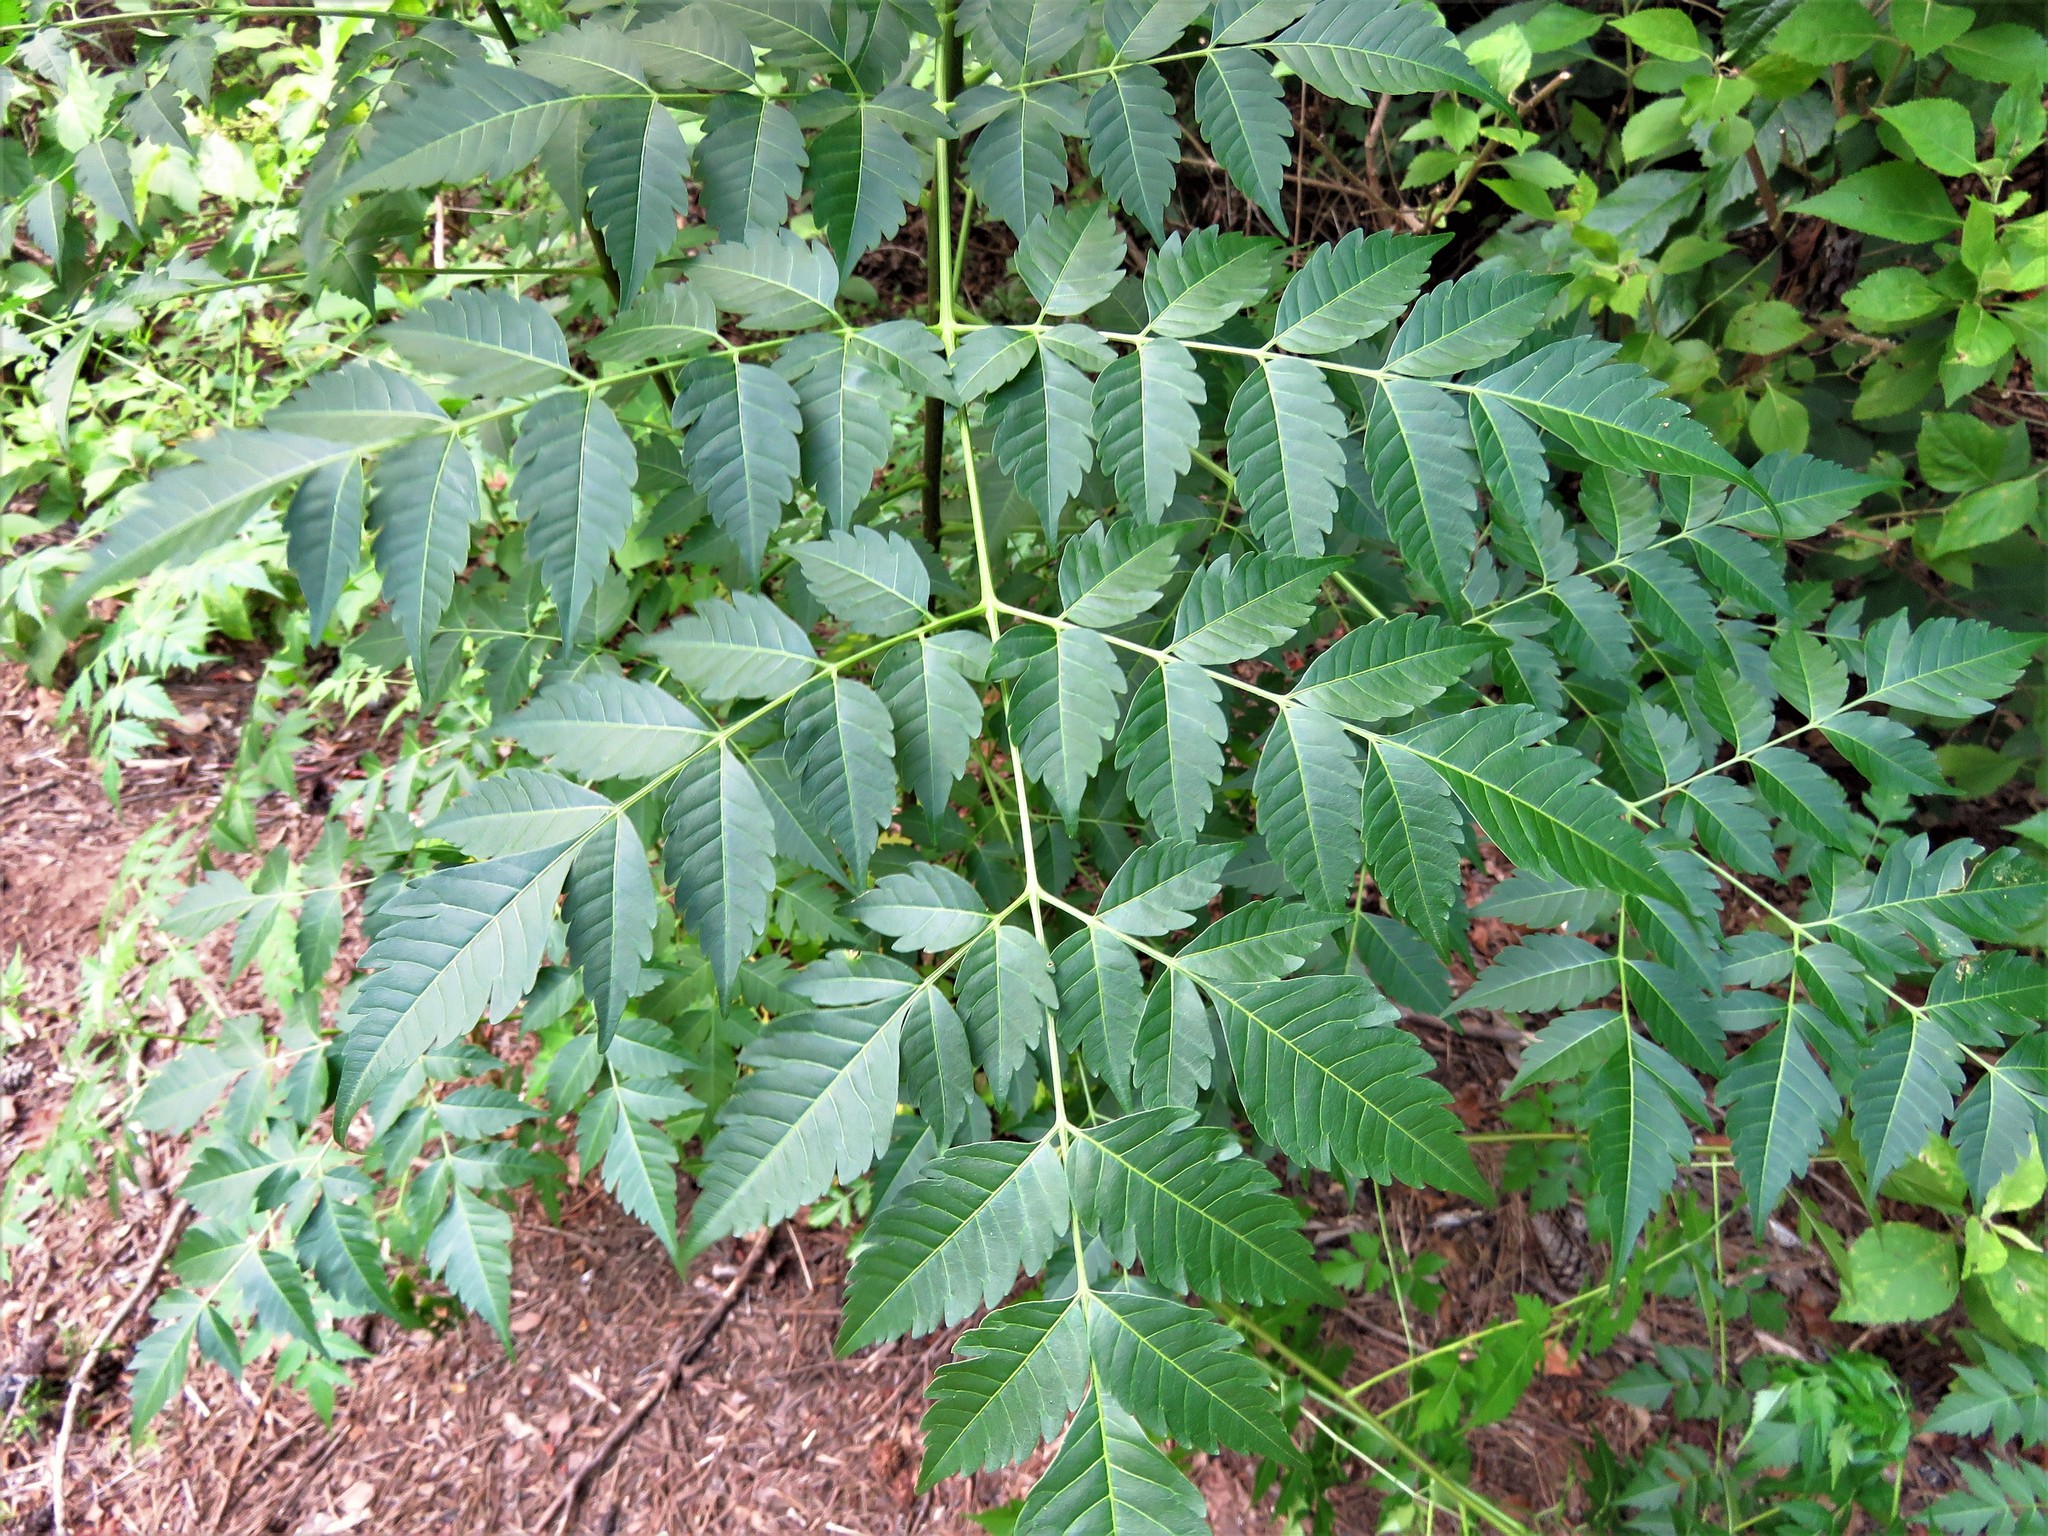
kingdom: Plantae
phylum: Tracheophyta
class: Magnoliopsida
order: Sapindales
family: Meliaceae
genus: Melia
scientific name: Melia azedarach
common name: Chinaberrytree
